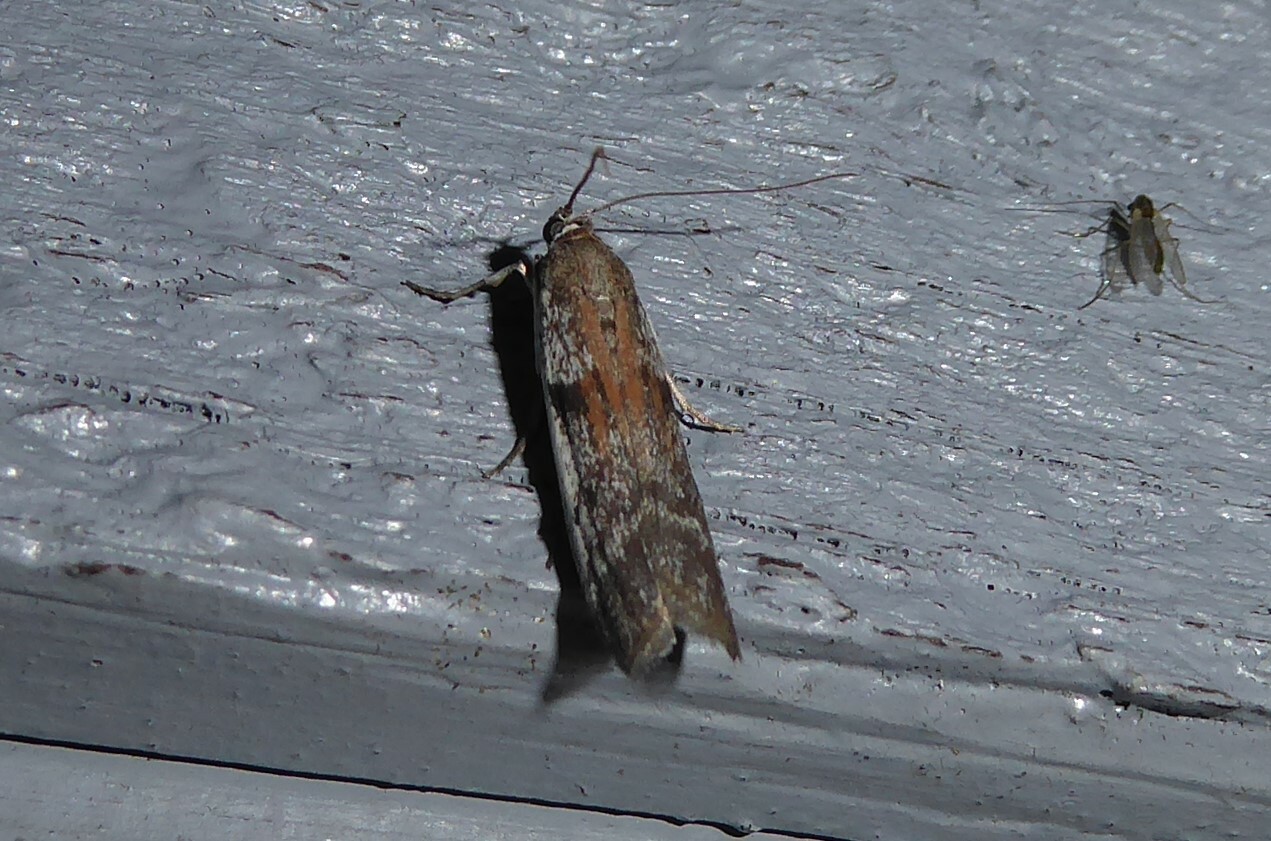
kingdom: Animalia
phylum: Arthropoda
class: Insecta
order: Lepidoptera
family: Pyralidae
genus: Patagoniodes
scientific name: Patagoniodes farinaria
